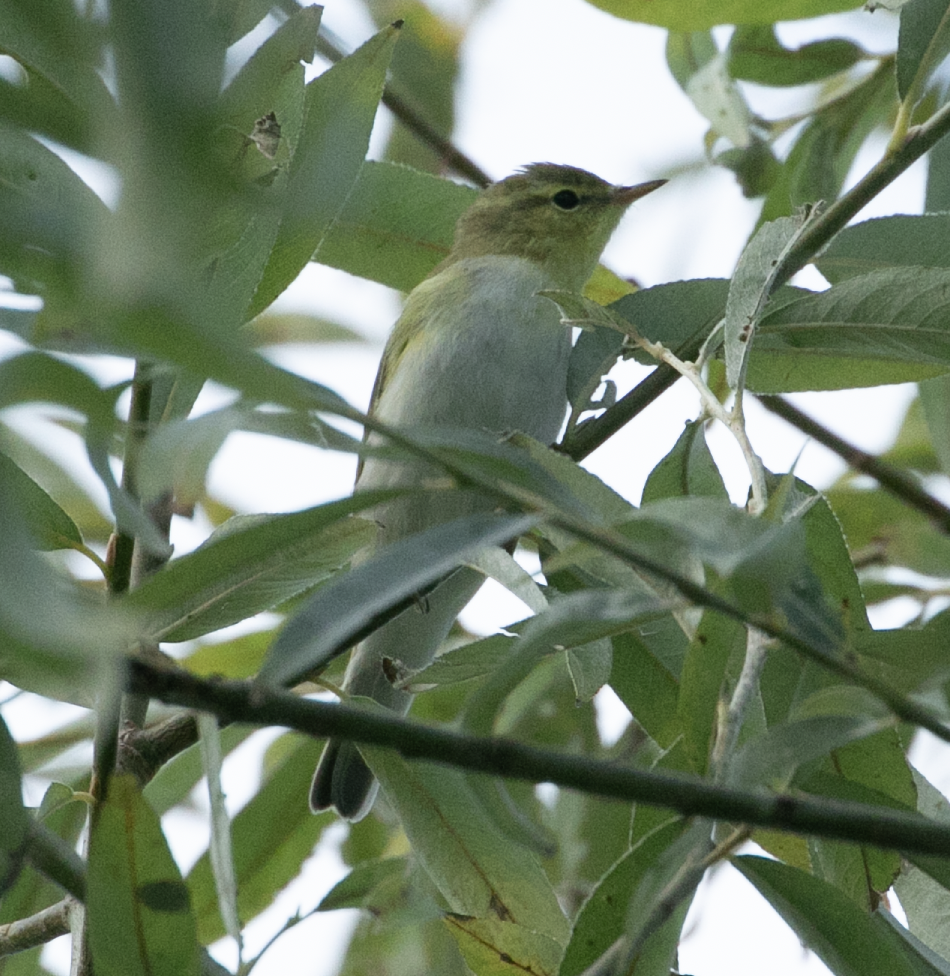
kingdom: Animalia
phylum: Chordata
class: Aves
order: Passeriformes
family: Phylloscopidae
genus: Phylloscopus
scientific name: Phylloscopus sibillatrix
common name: Wood warbler
